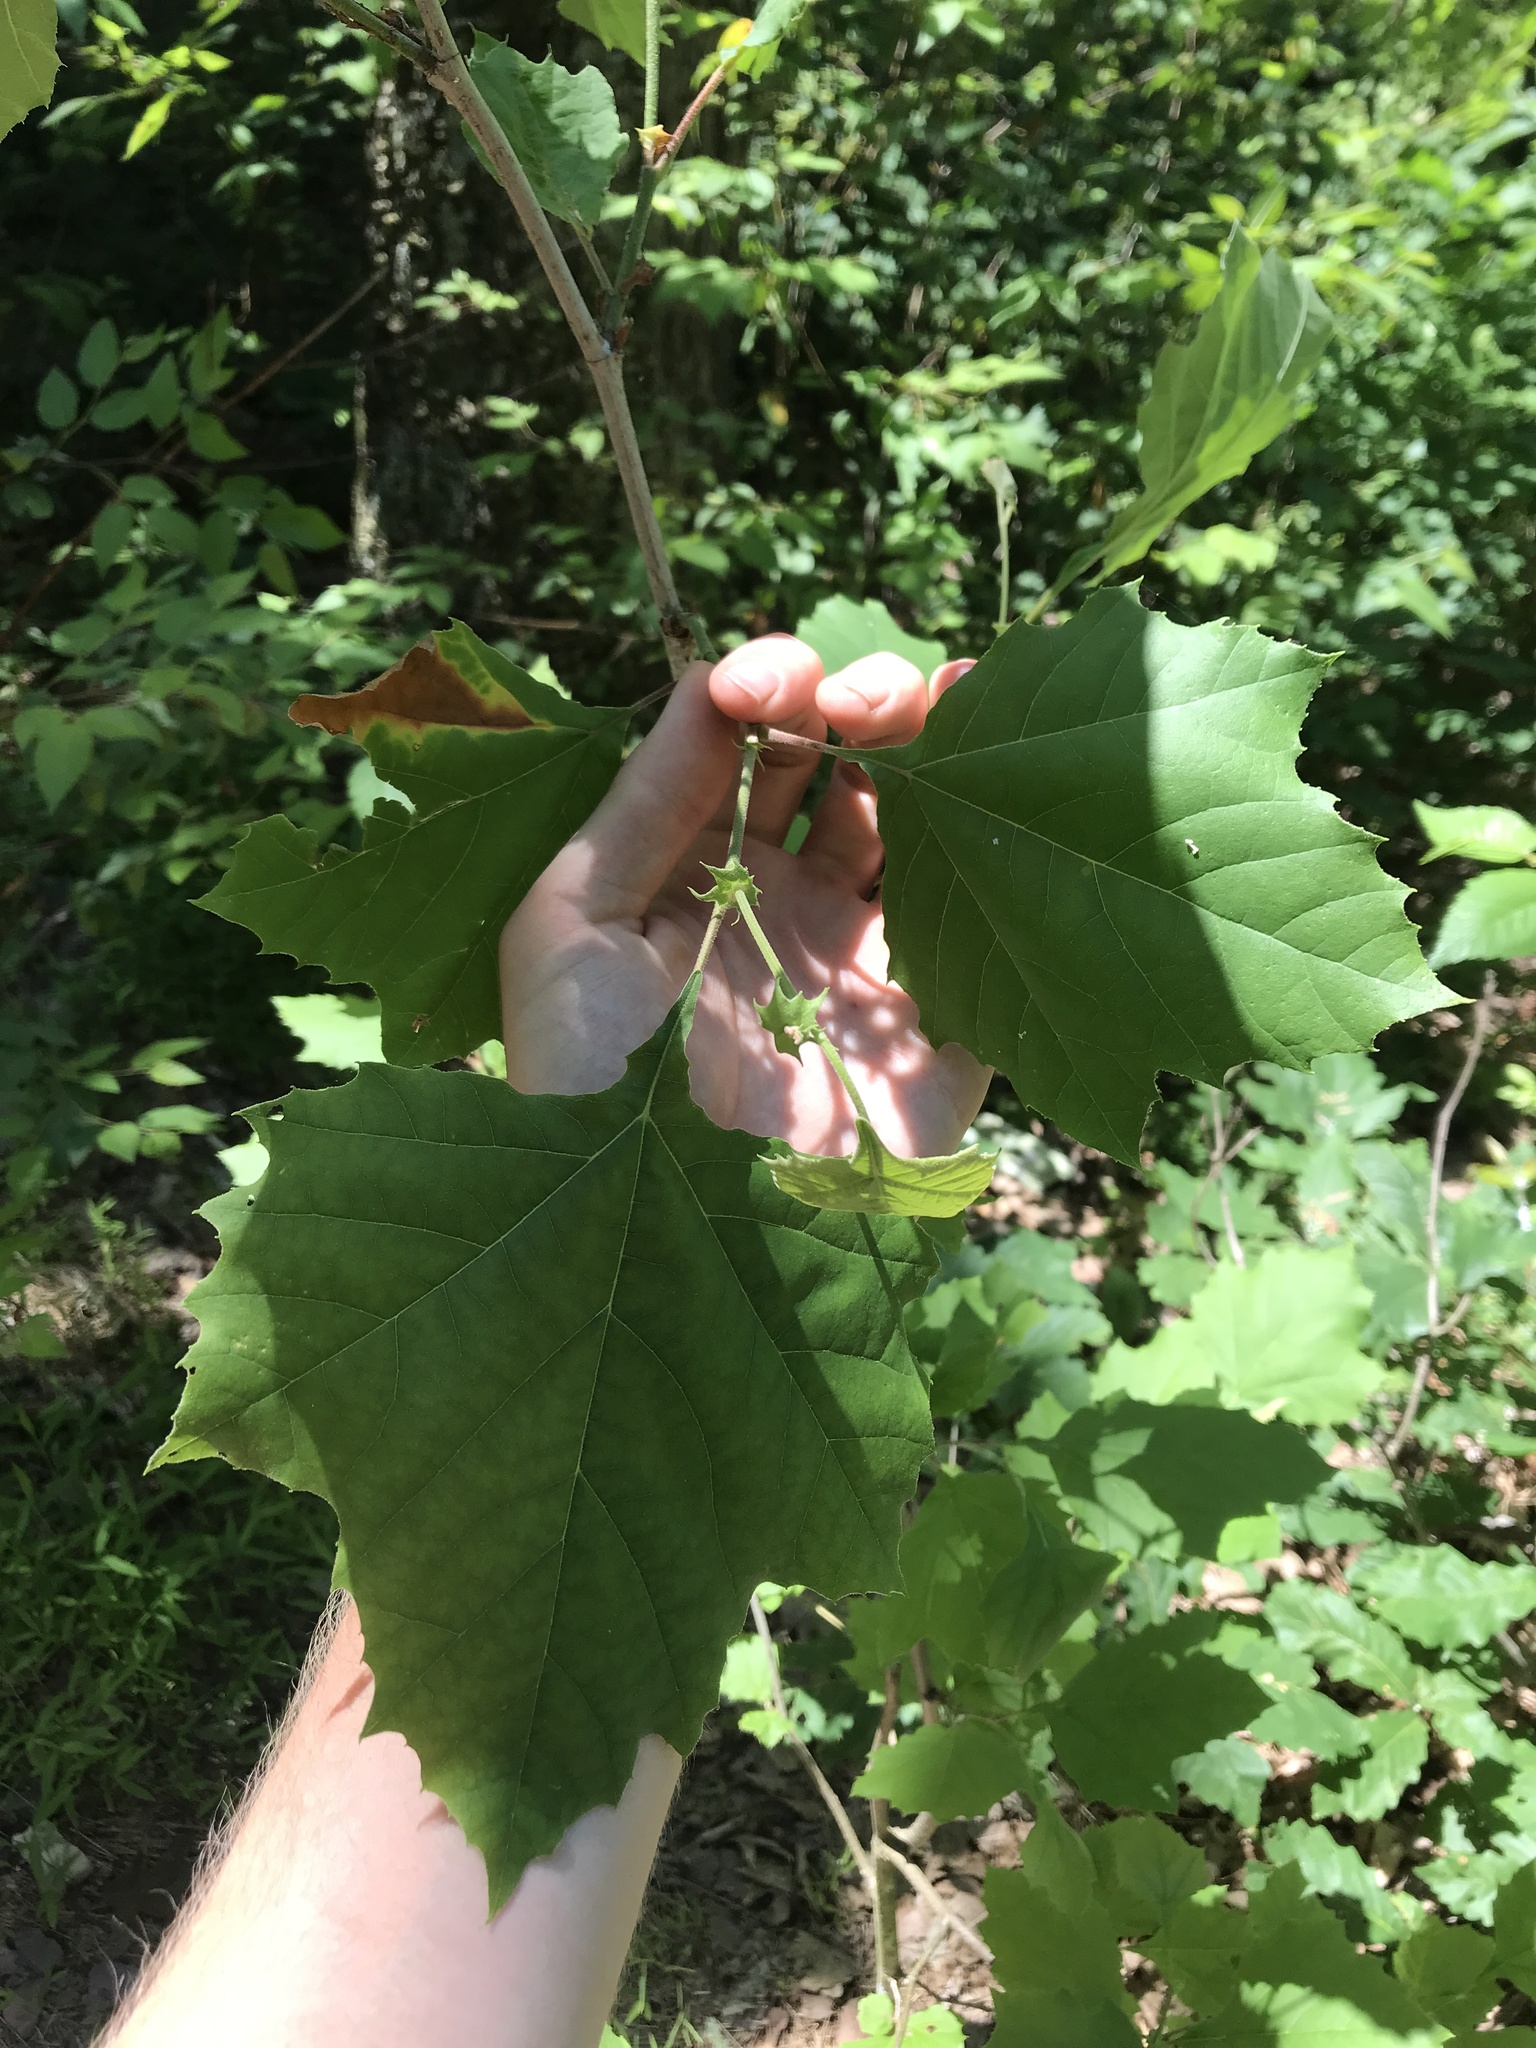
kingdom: Plantae
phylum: Tracheophyta
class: Magnoliopsida
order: Proteales
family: Platanaceae
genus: Platanus
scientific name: Platanus occidentalis
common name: American sycamore
